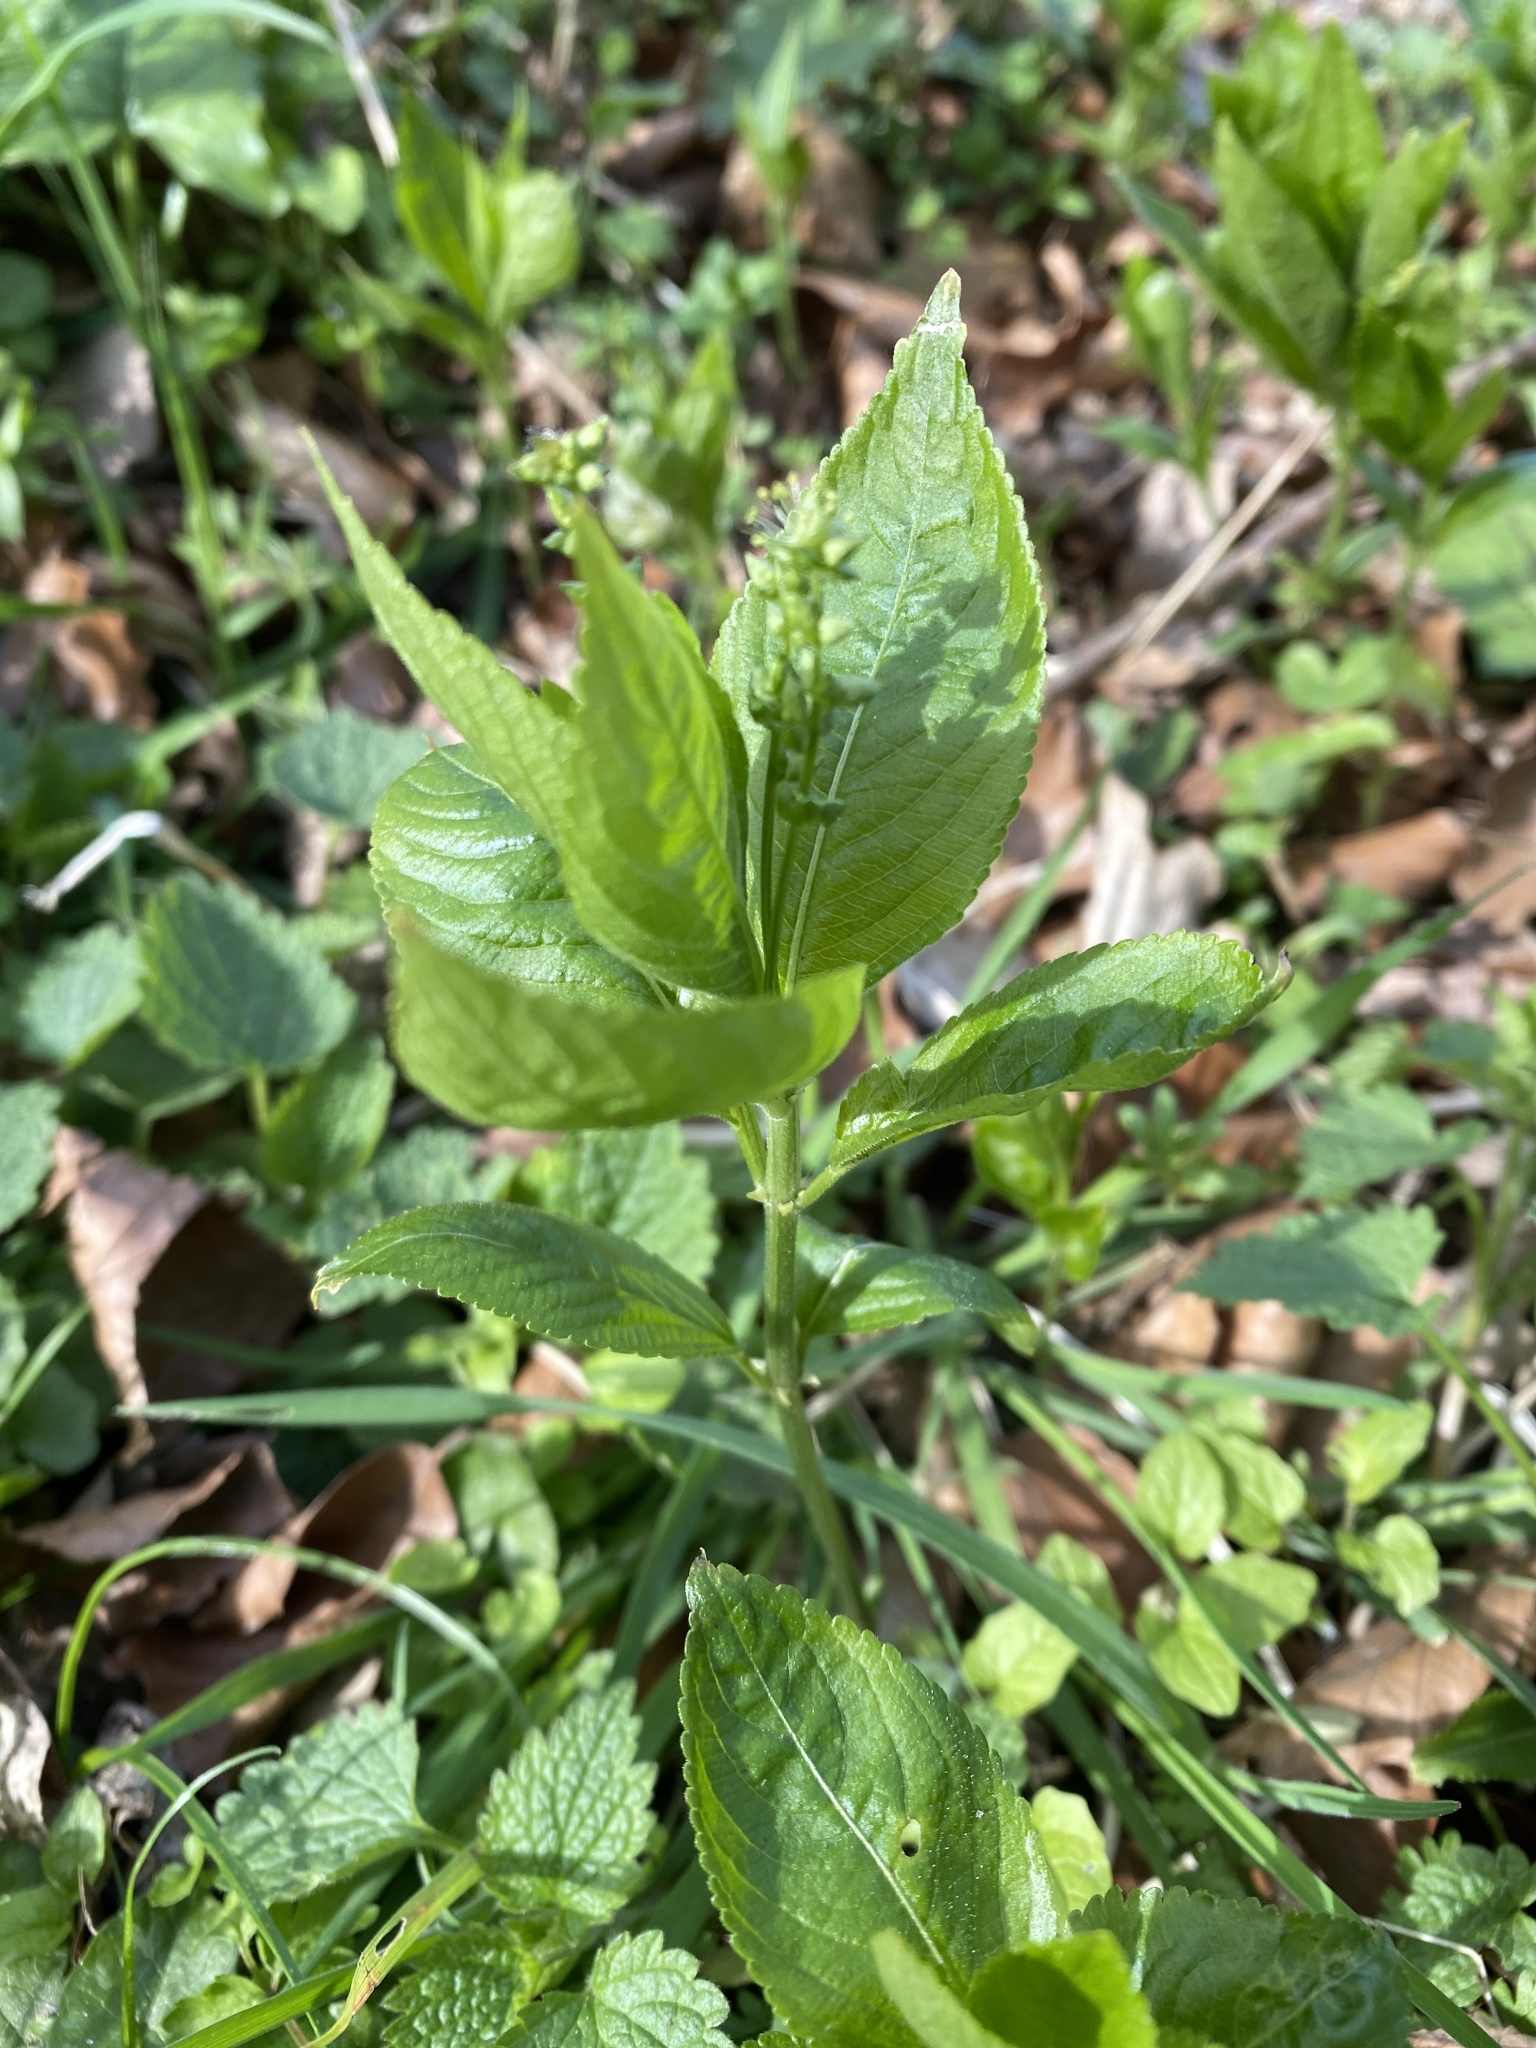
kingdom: Plantae
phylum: Tracheophyta
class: Magnoliopsida
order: Malpighiales
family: Euphorbiaceae
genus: Mercurialis
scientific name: Mercurialis perennis
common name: Dog mercury
